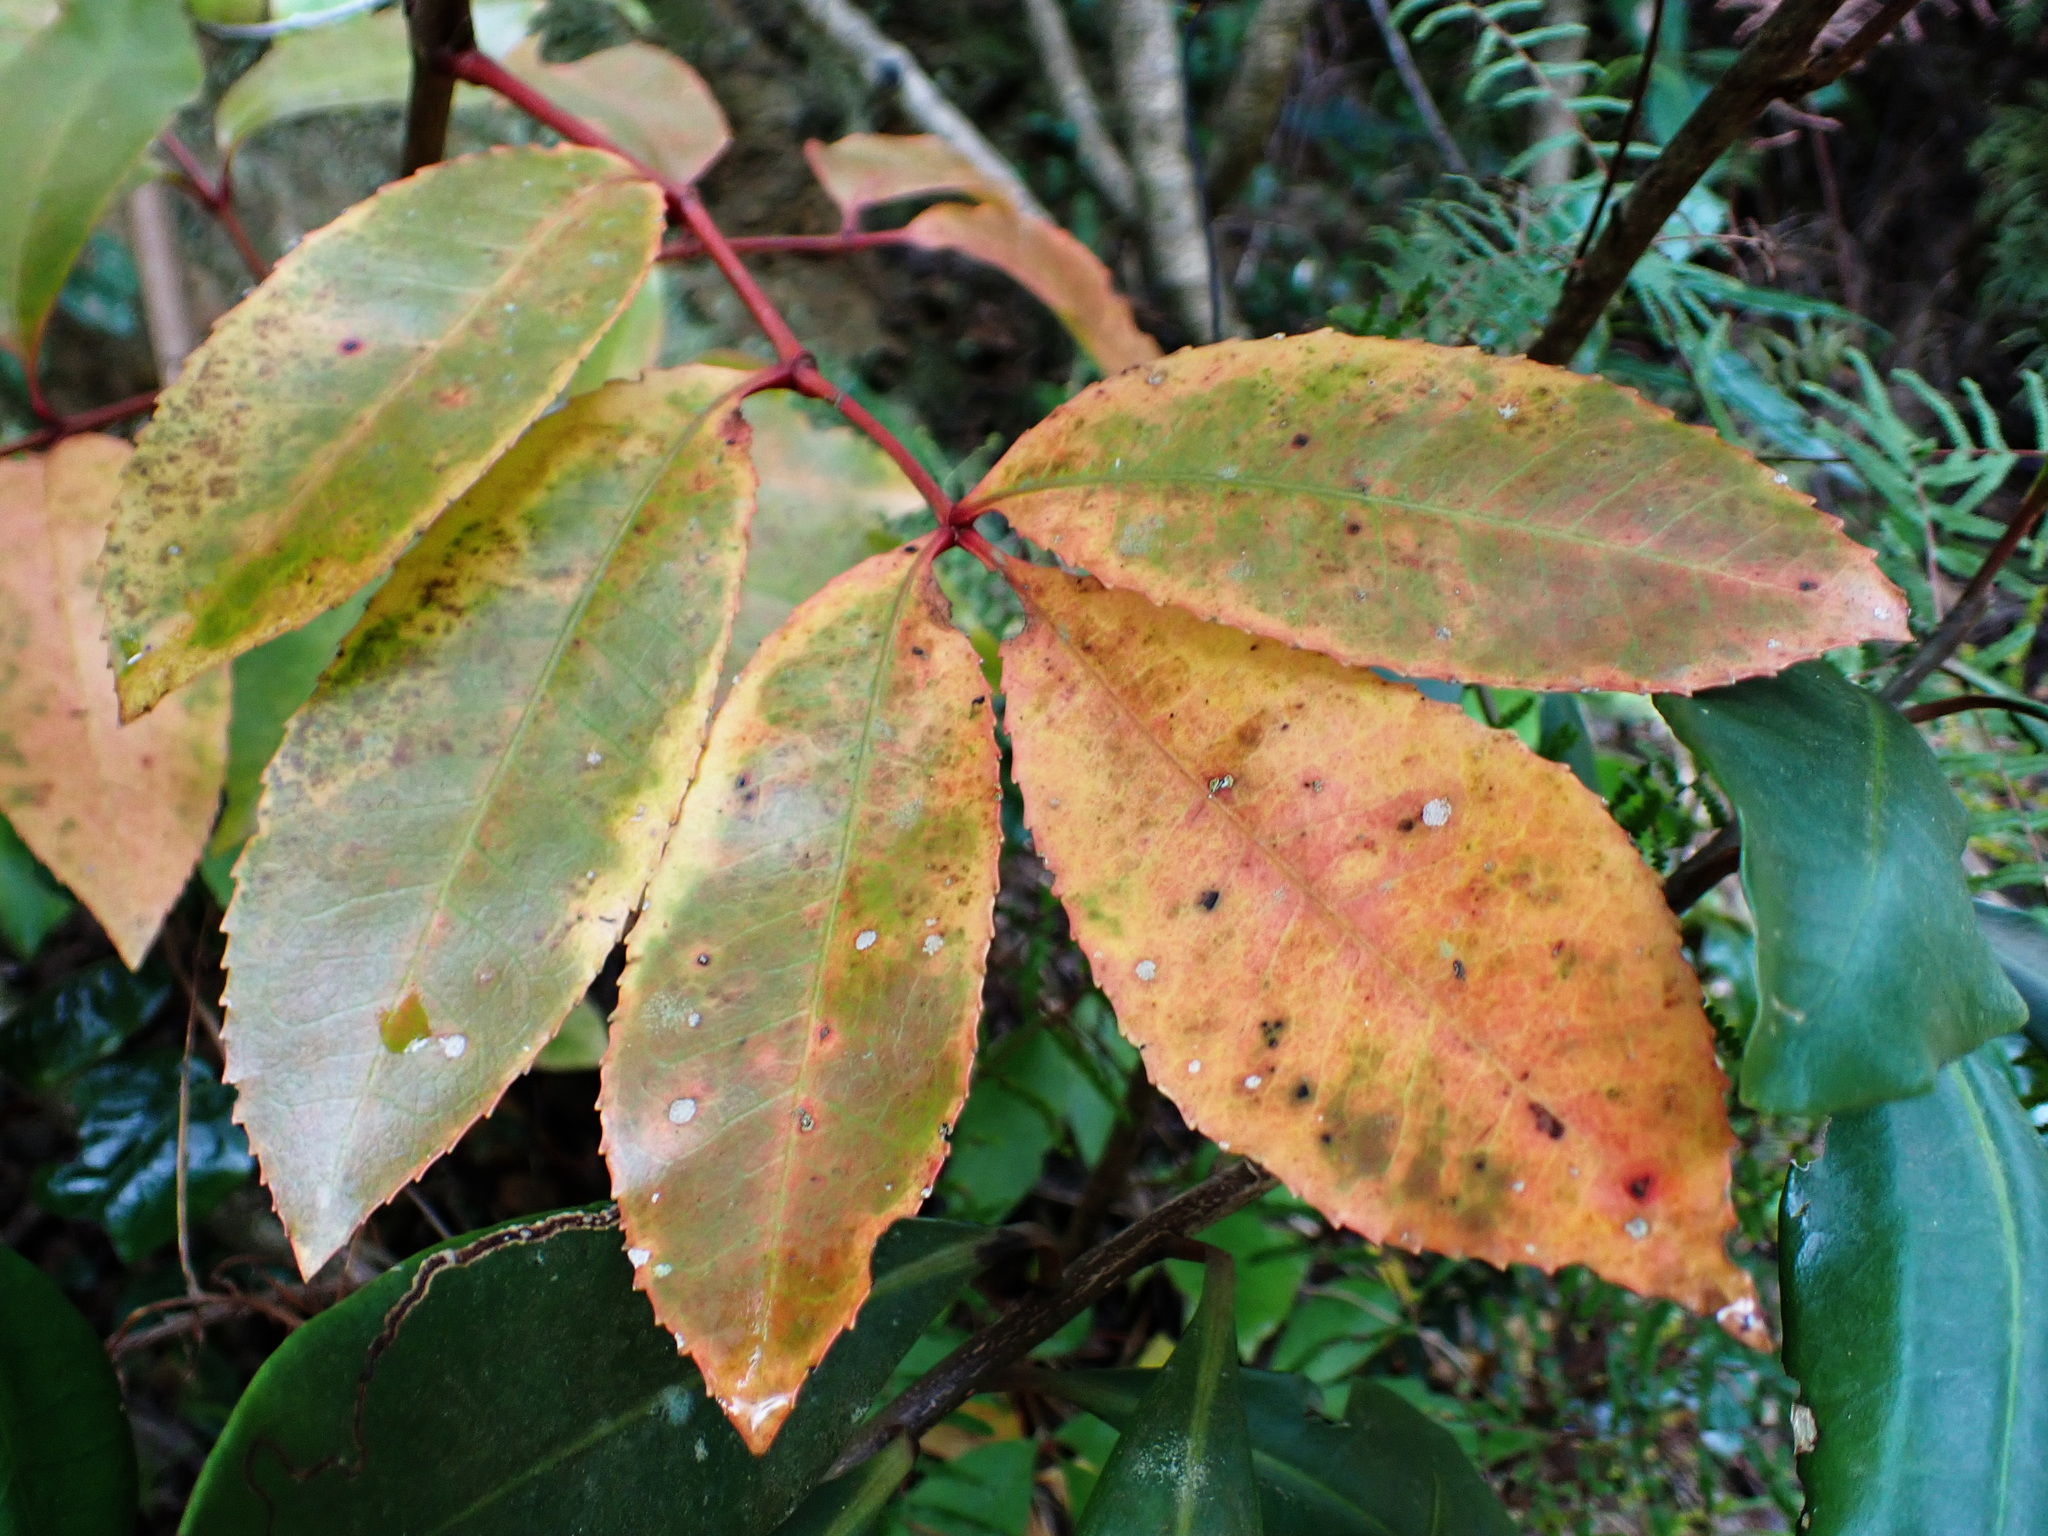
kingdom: Plantae
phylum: Tracheophyta
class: Magnoliopsida
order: Oxalidales
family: Cunoniaceae
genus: Cunonia
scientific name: Cunonia capensis
